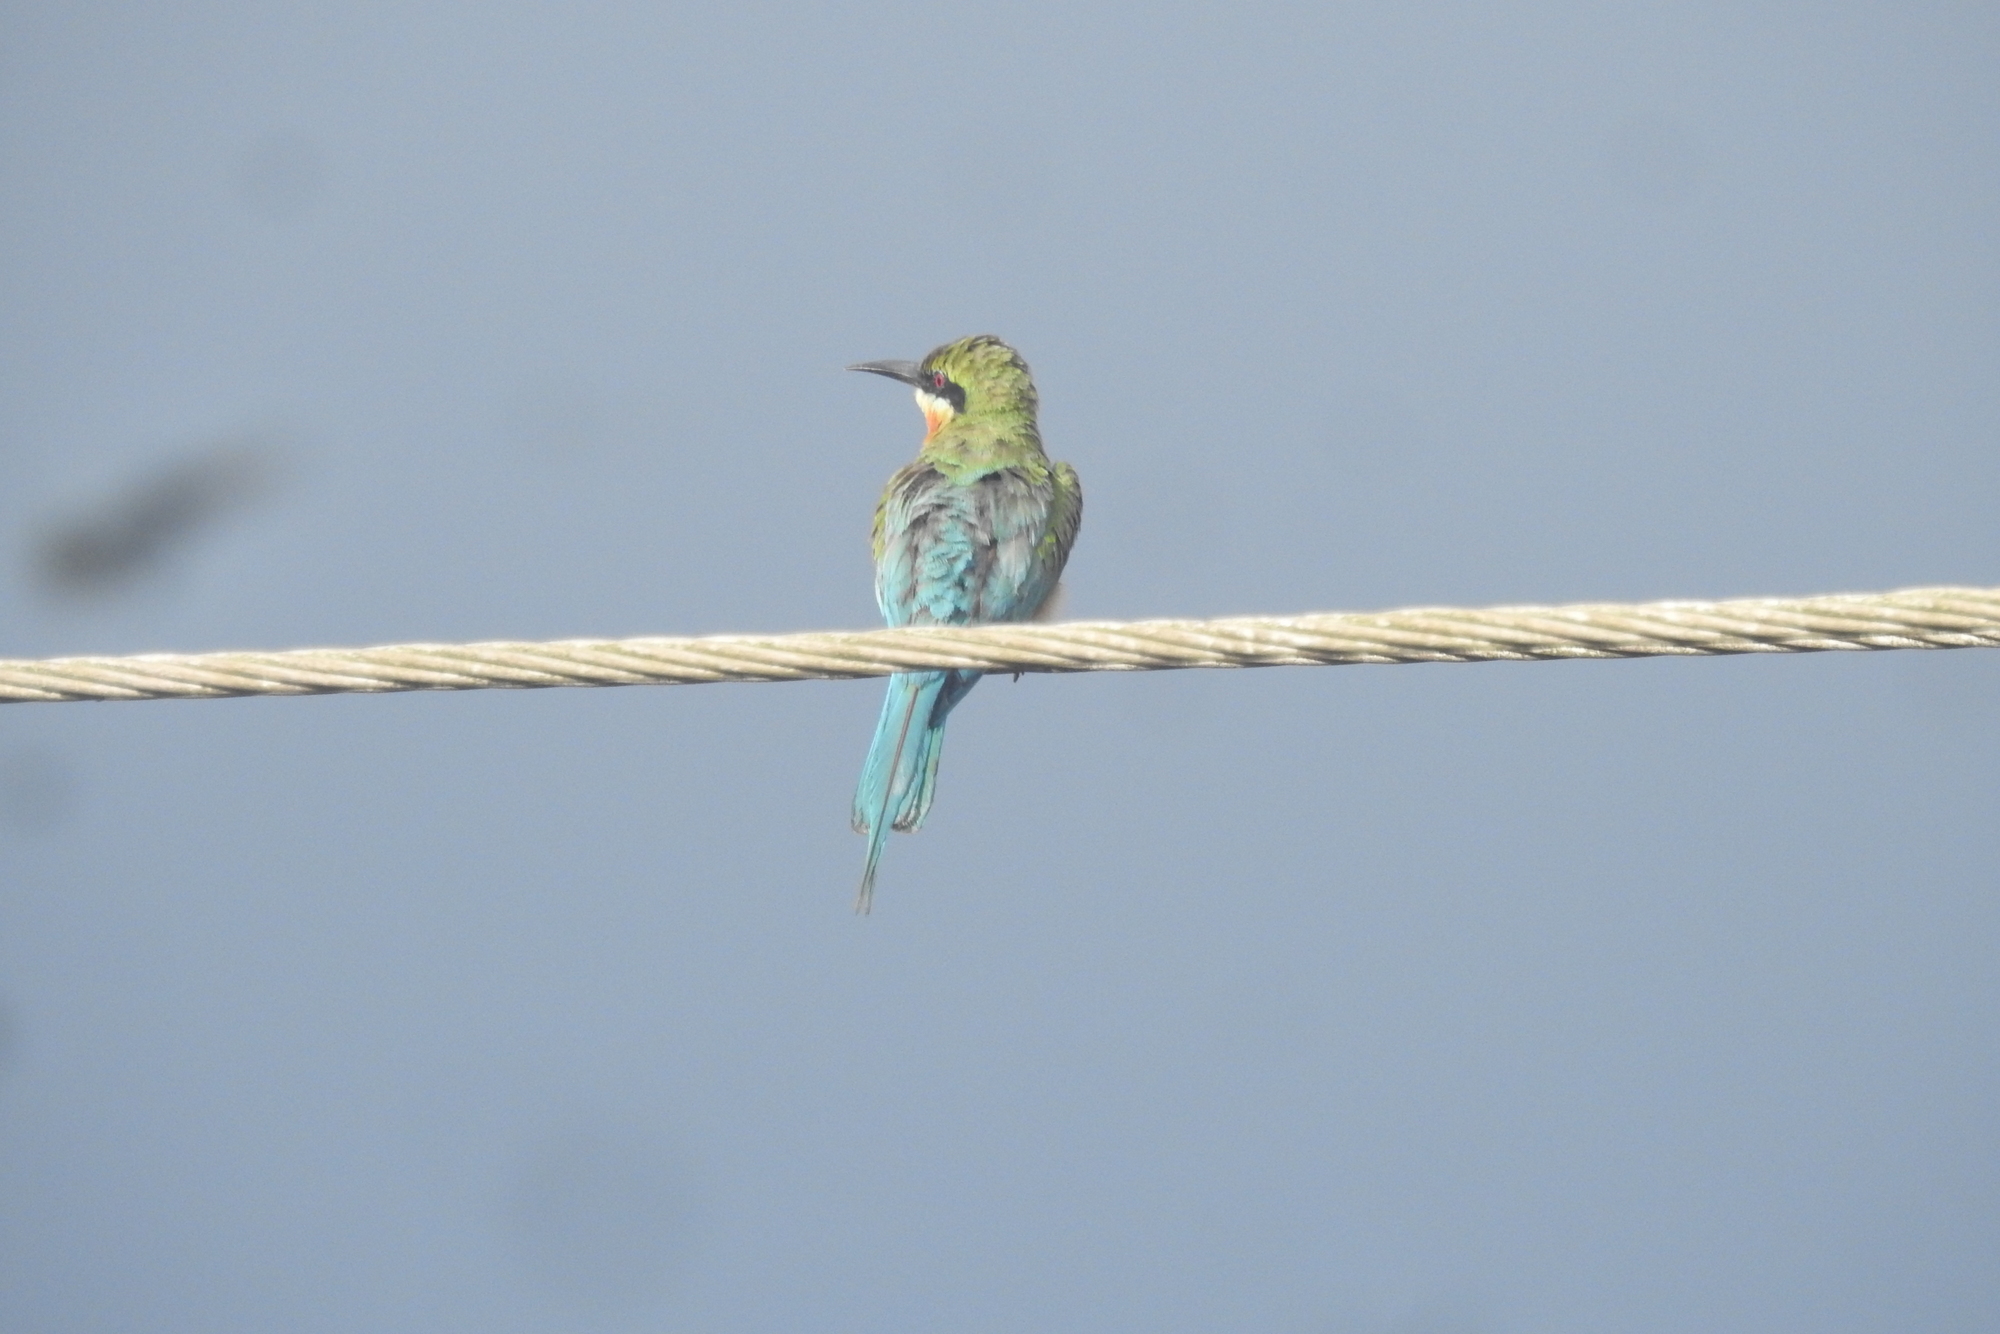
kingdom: Animalia
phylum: Chordata
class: Aves
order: Coraciiformes
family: Meropidae
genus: Merops
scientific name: Merops philippinus
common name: Blue-tailed bee-eater
